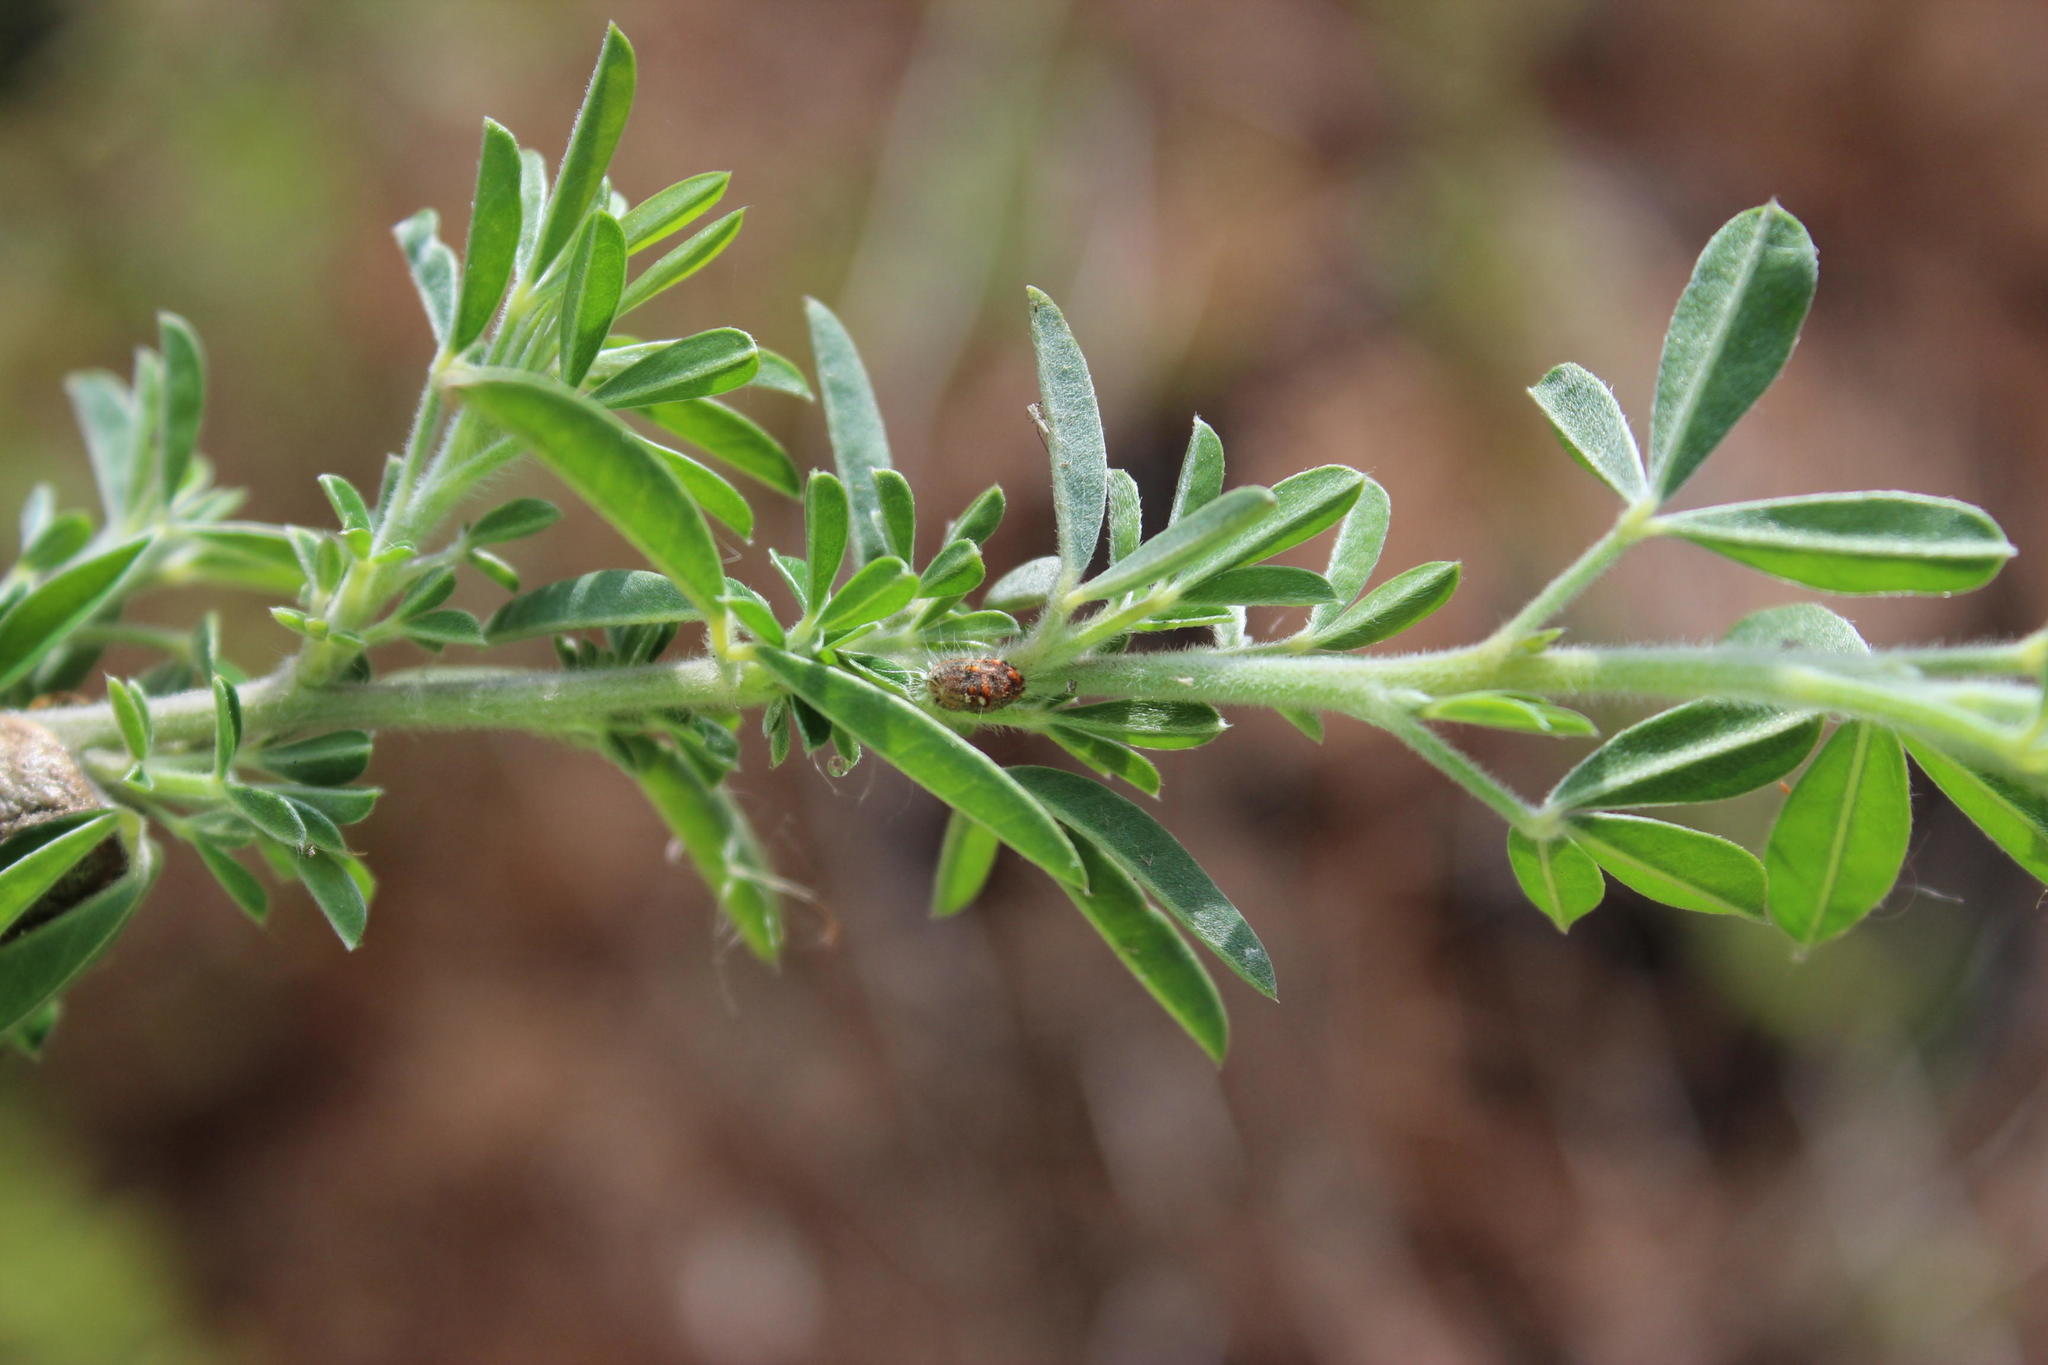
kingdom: Plantae
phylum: Tracheophyta
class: Magnoliopsida
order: Fabales
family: Fabaceae
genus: Genista
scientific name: Genista monspessulana
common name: Montpellier broom
